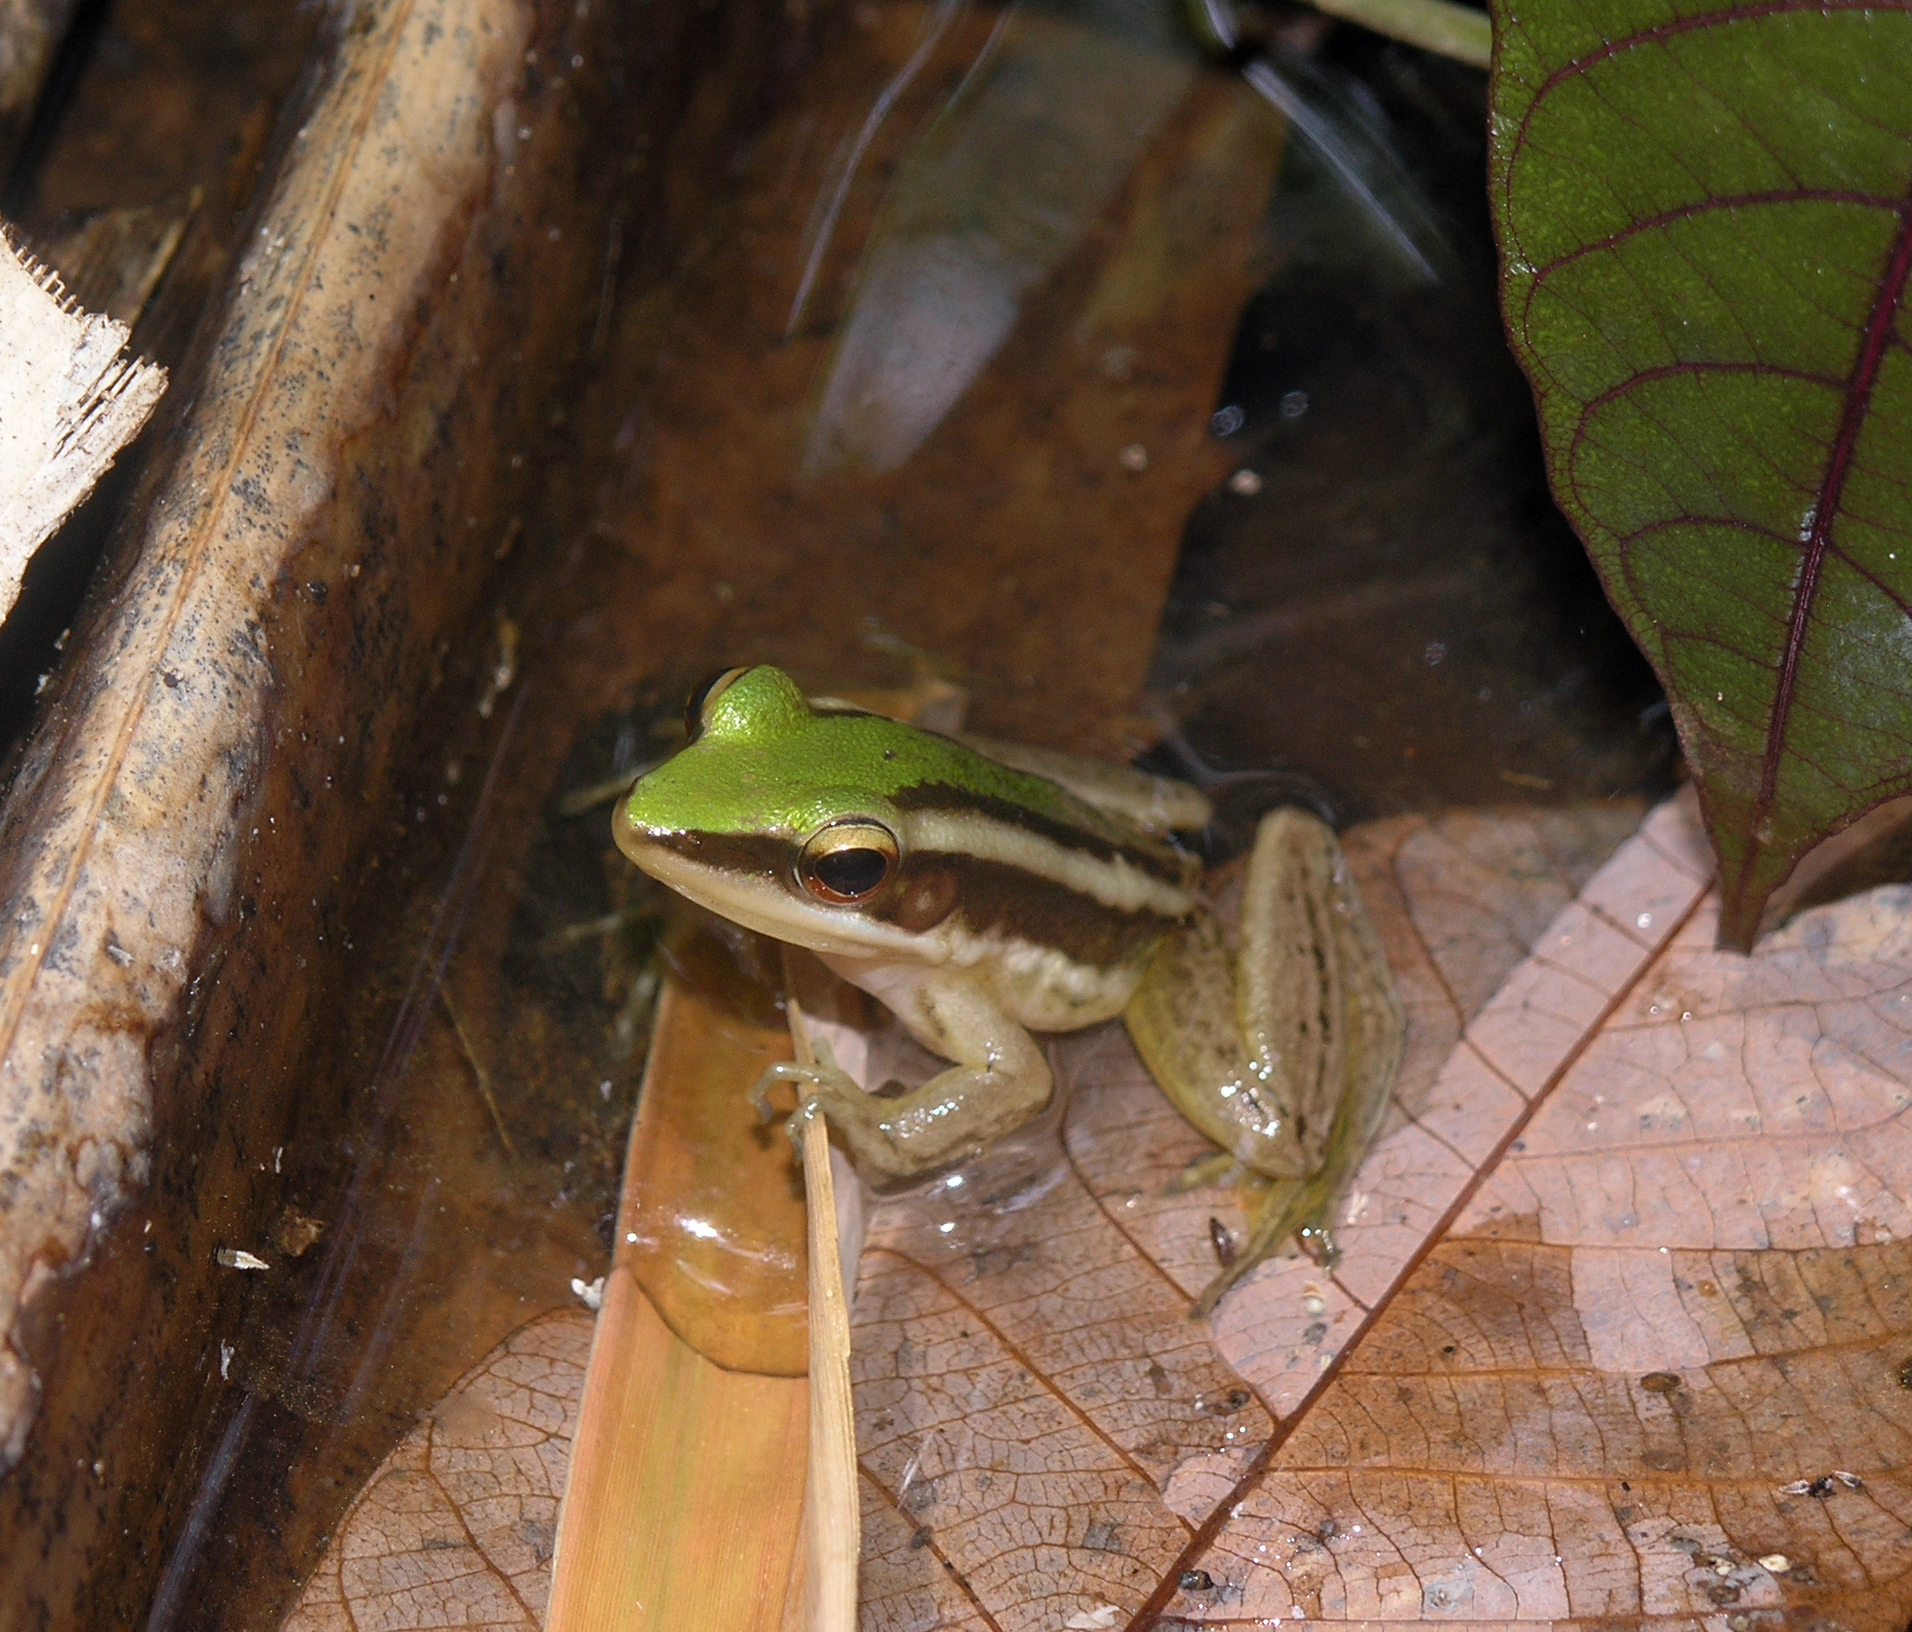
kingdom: Animalia
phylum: Chordata
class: Amphibia
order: Anura
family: Ranidae
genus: Hylarana
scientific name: Hylarana erythraea
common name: Common green frog/green paddy frog/leaf frog
